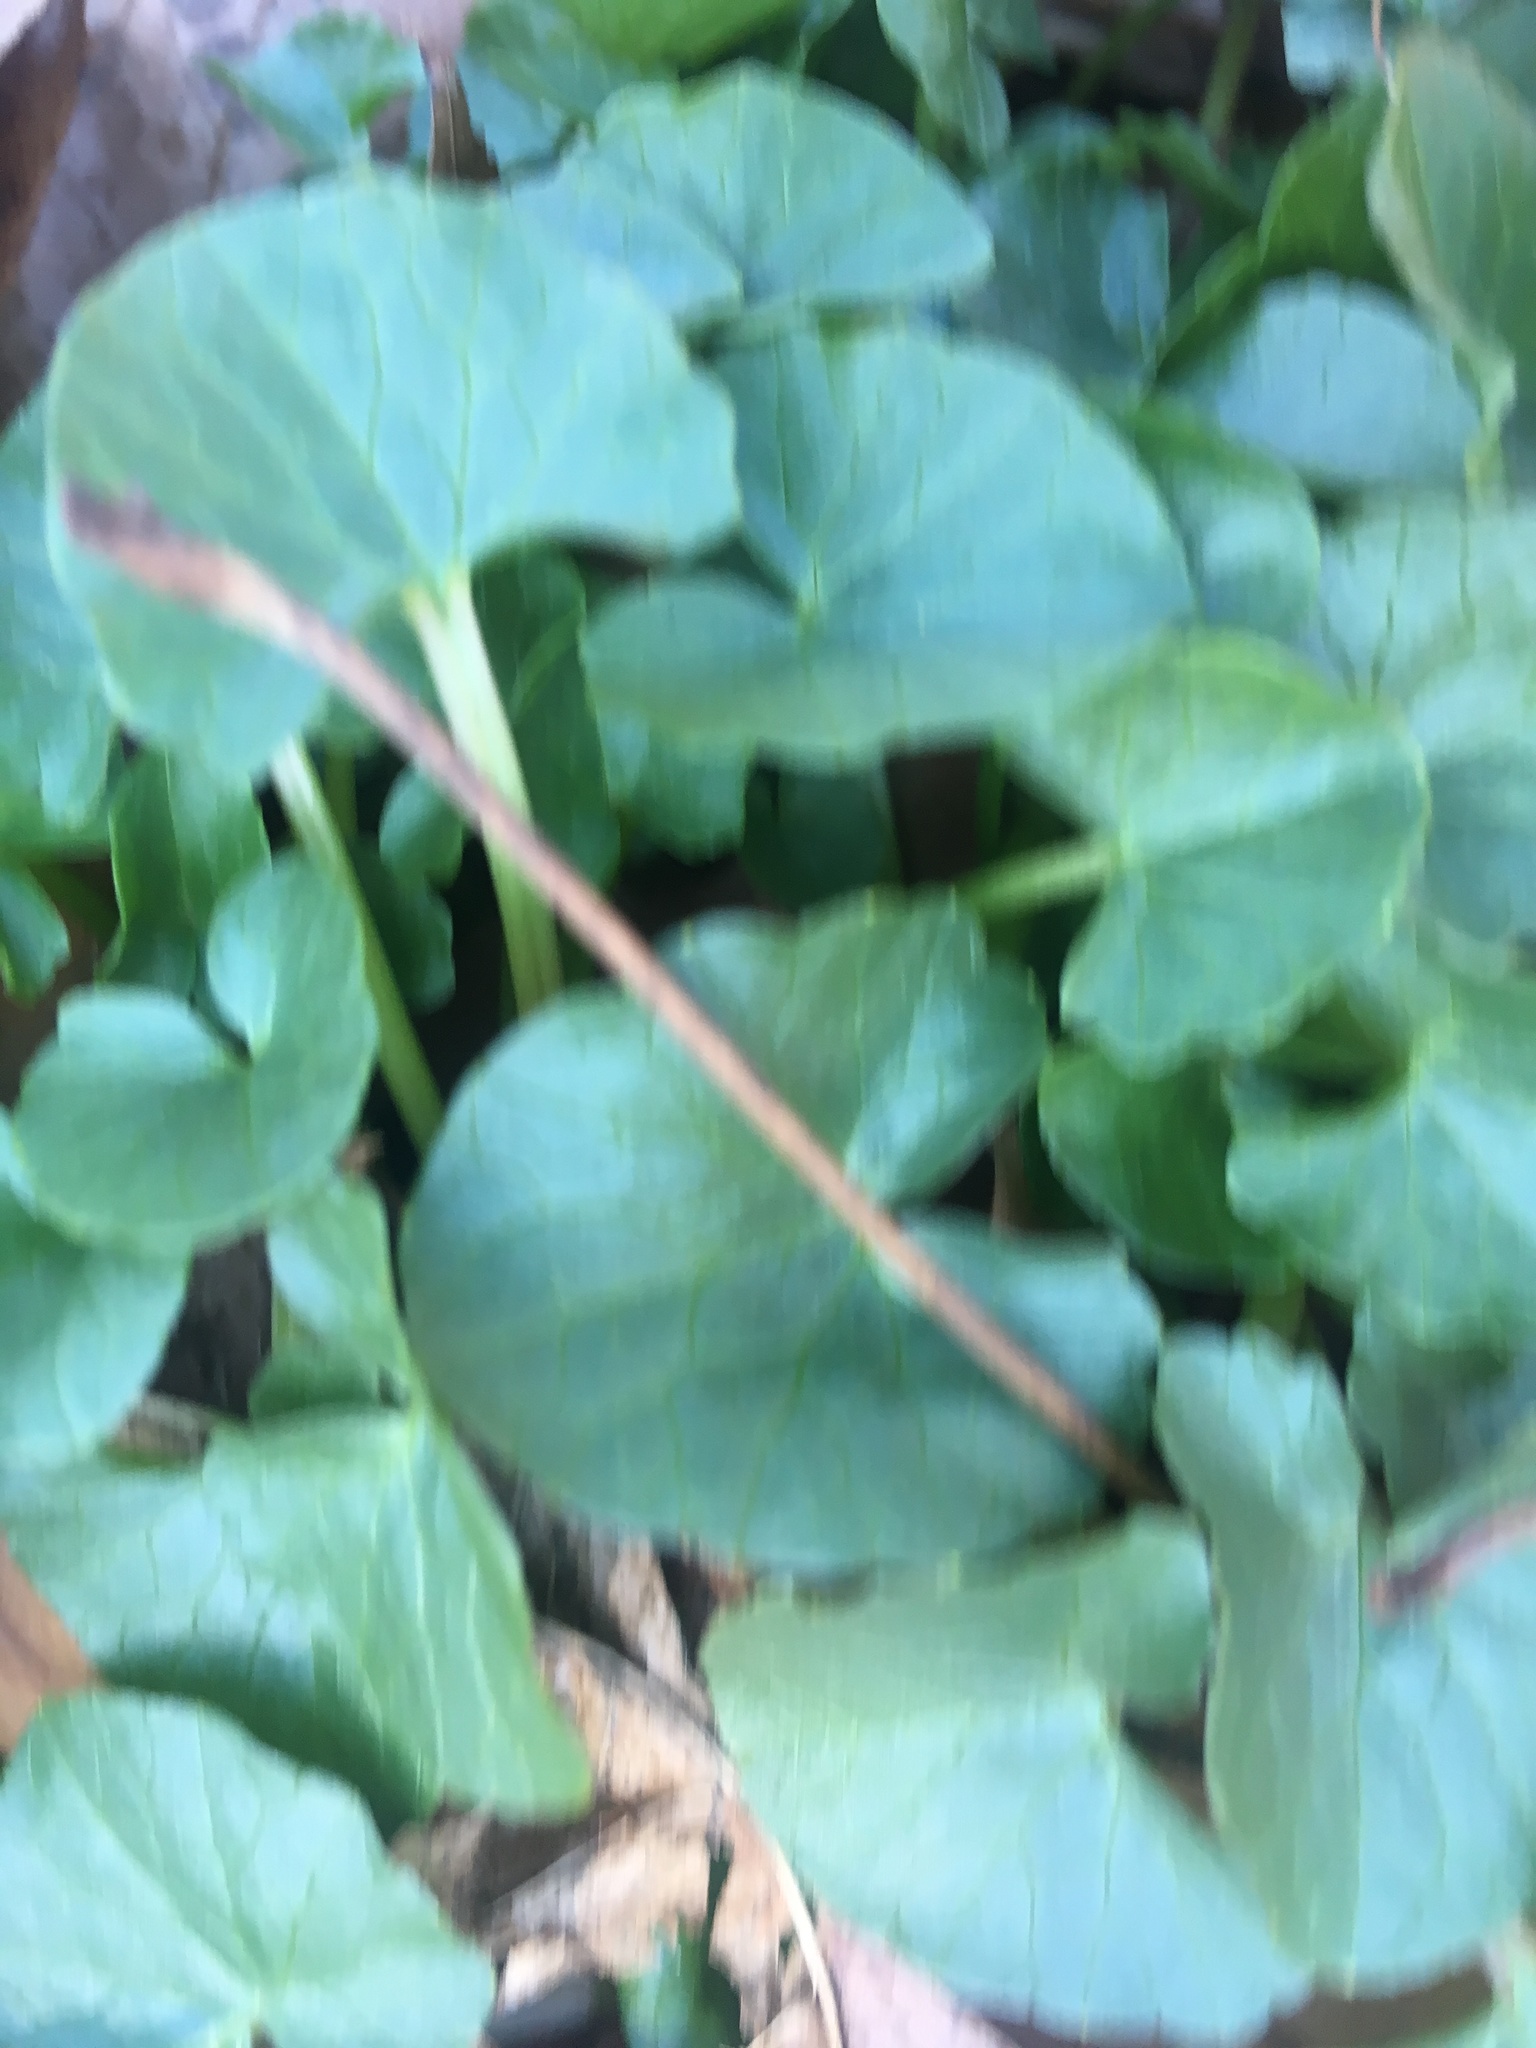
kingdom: Plantae
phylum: Tracheophyta
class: Magnoliopsida
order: Ranunculales
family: Ranunculaceae
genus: Ficaria
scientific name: Ficaria verna
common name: Lesser celandine
